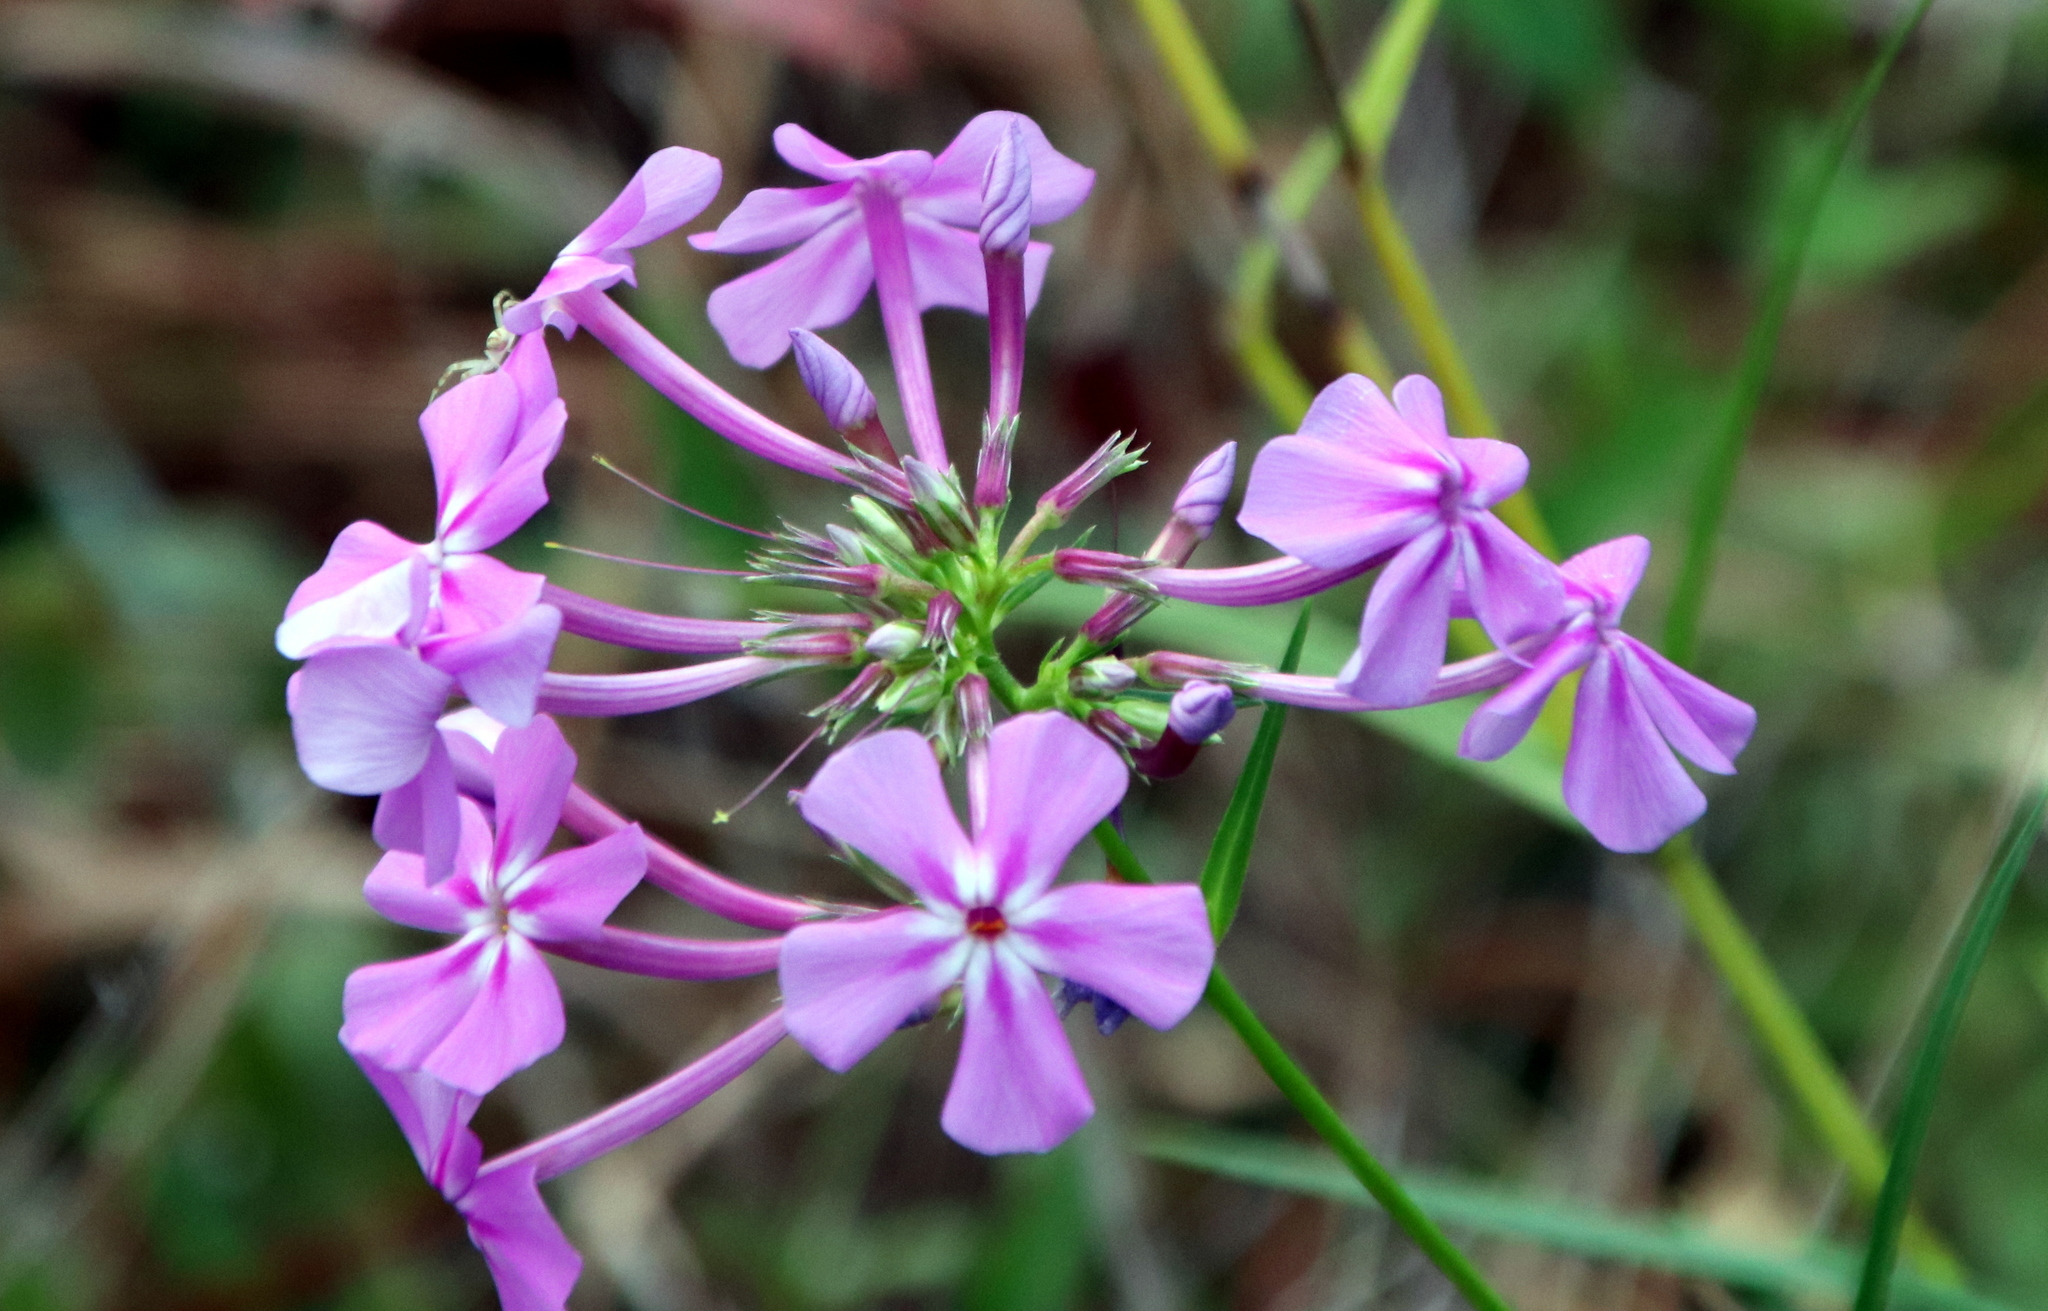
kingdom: Plantae
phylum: Tracheophyta
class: Magnoliopsida
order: Ericales
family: Polemoniaceae
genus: Phlox
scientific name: Phlox carolina
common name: Thick-leaf phlox
